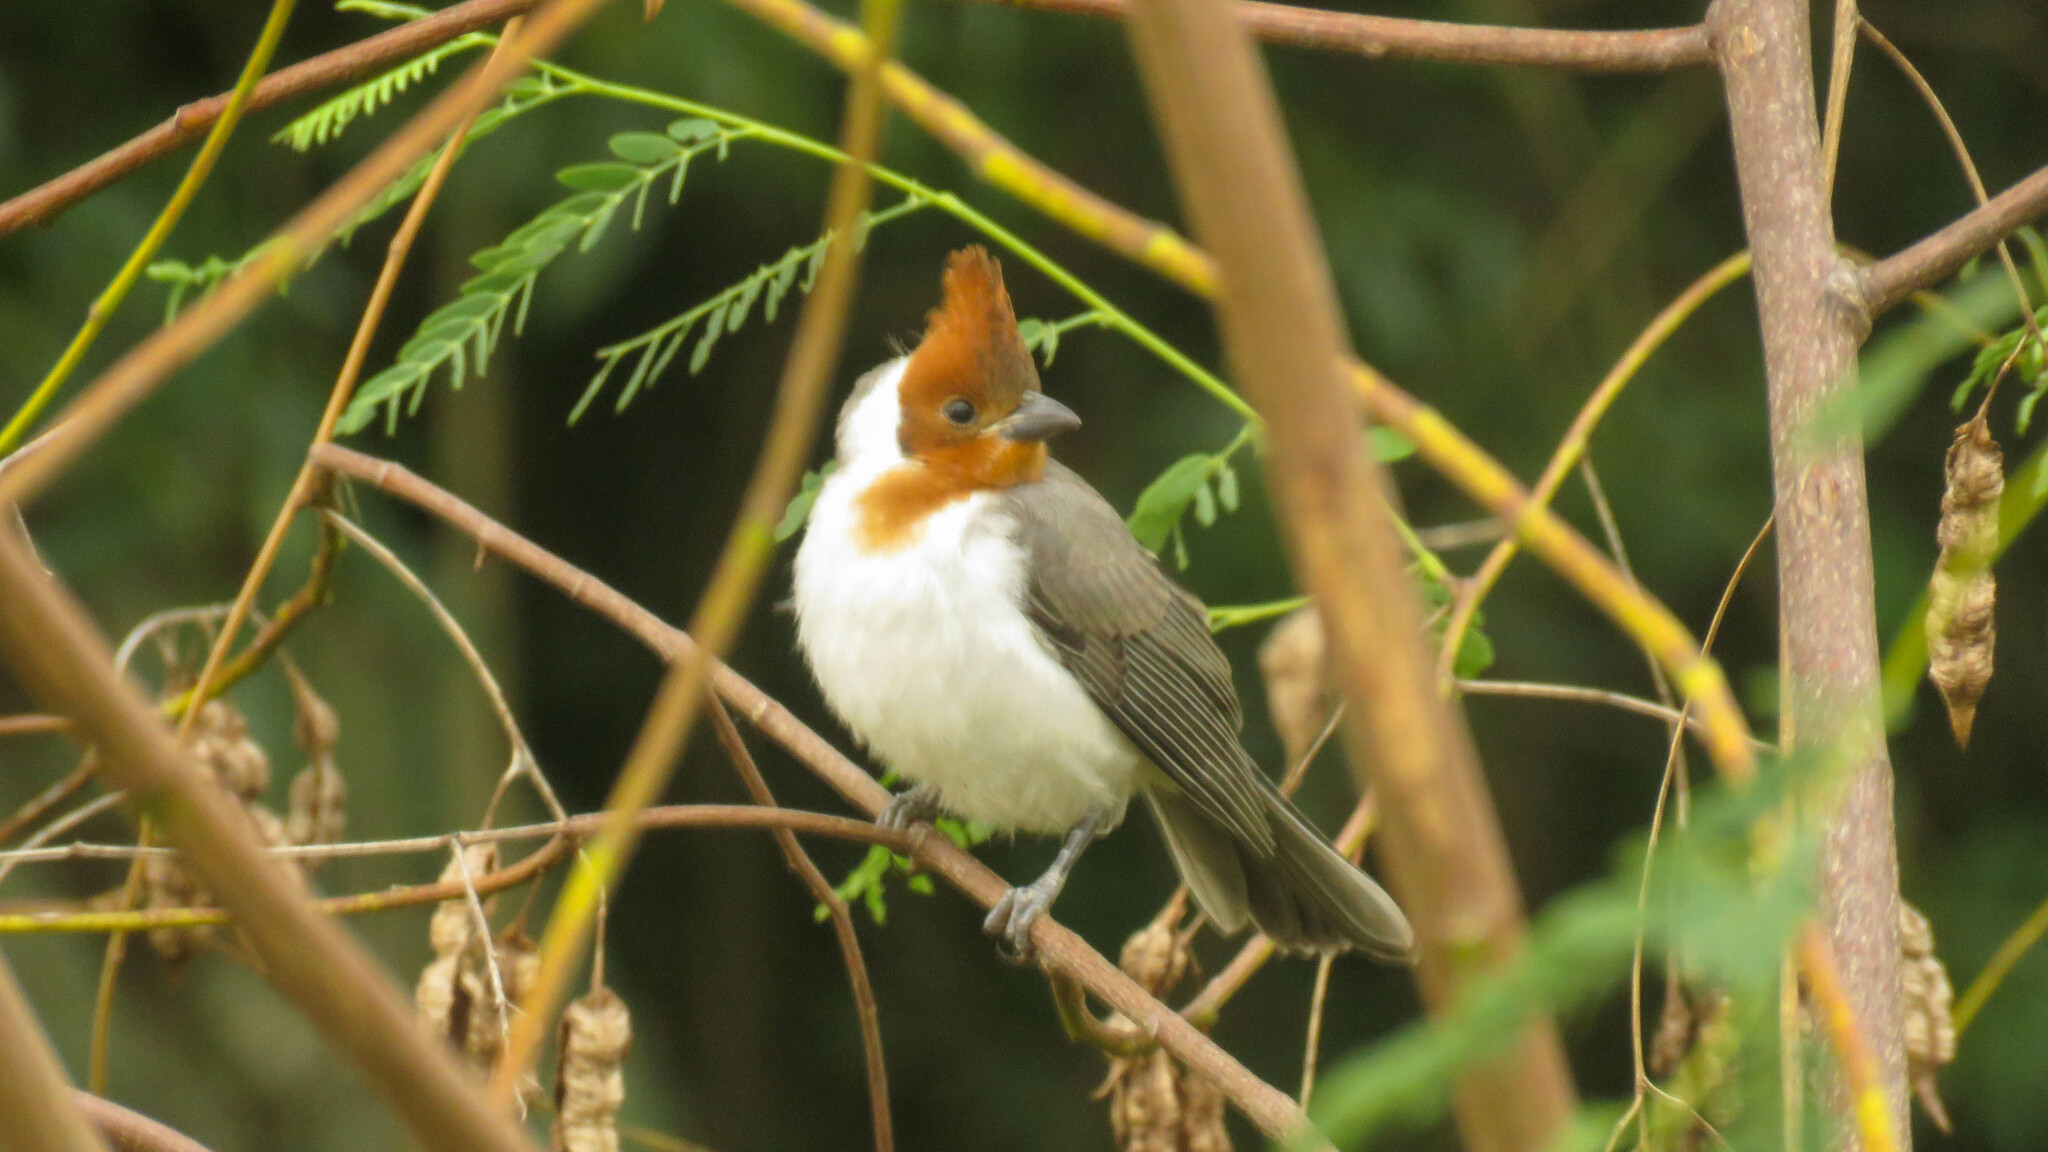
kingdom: Animalia
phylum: Chordata
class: Aves
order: Passeriformes
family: Thraupidae
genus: Paroaria
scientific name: Paroaria coronata
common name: Red-crested cardinal
